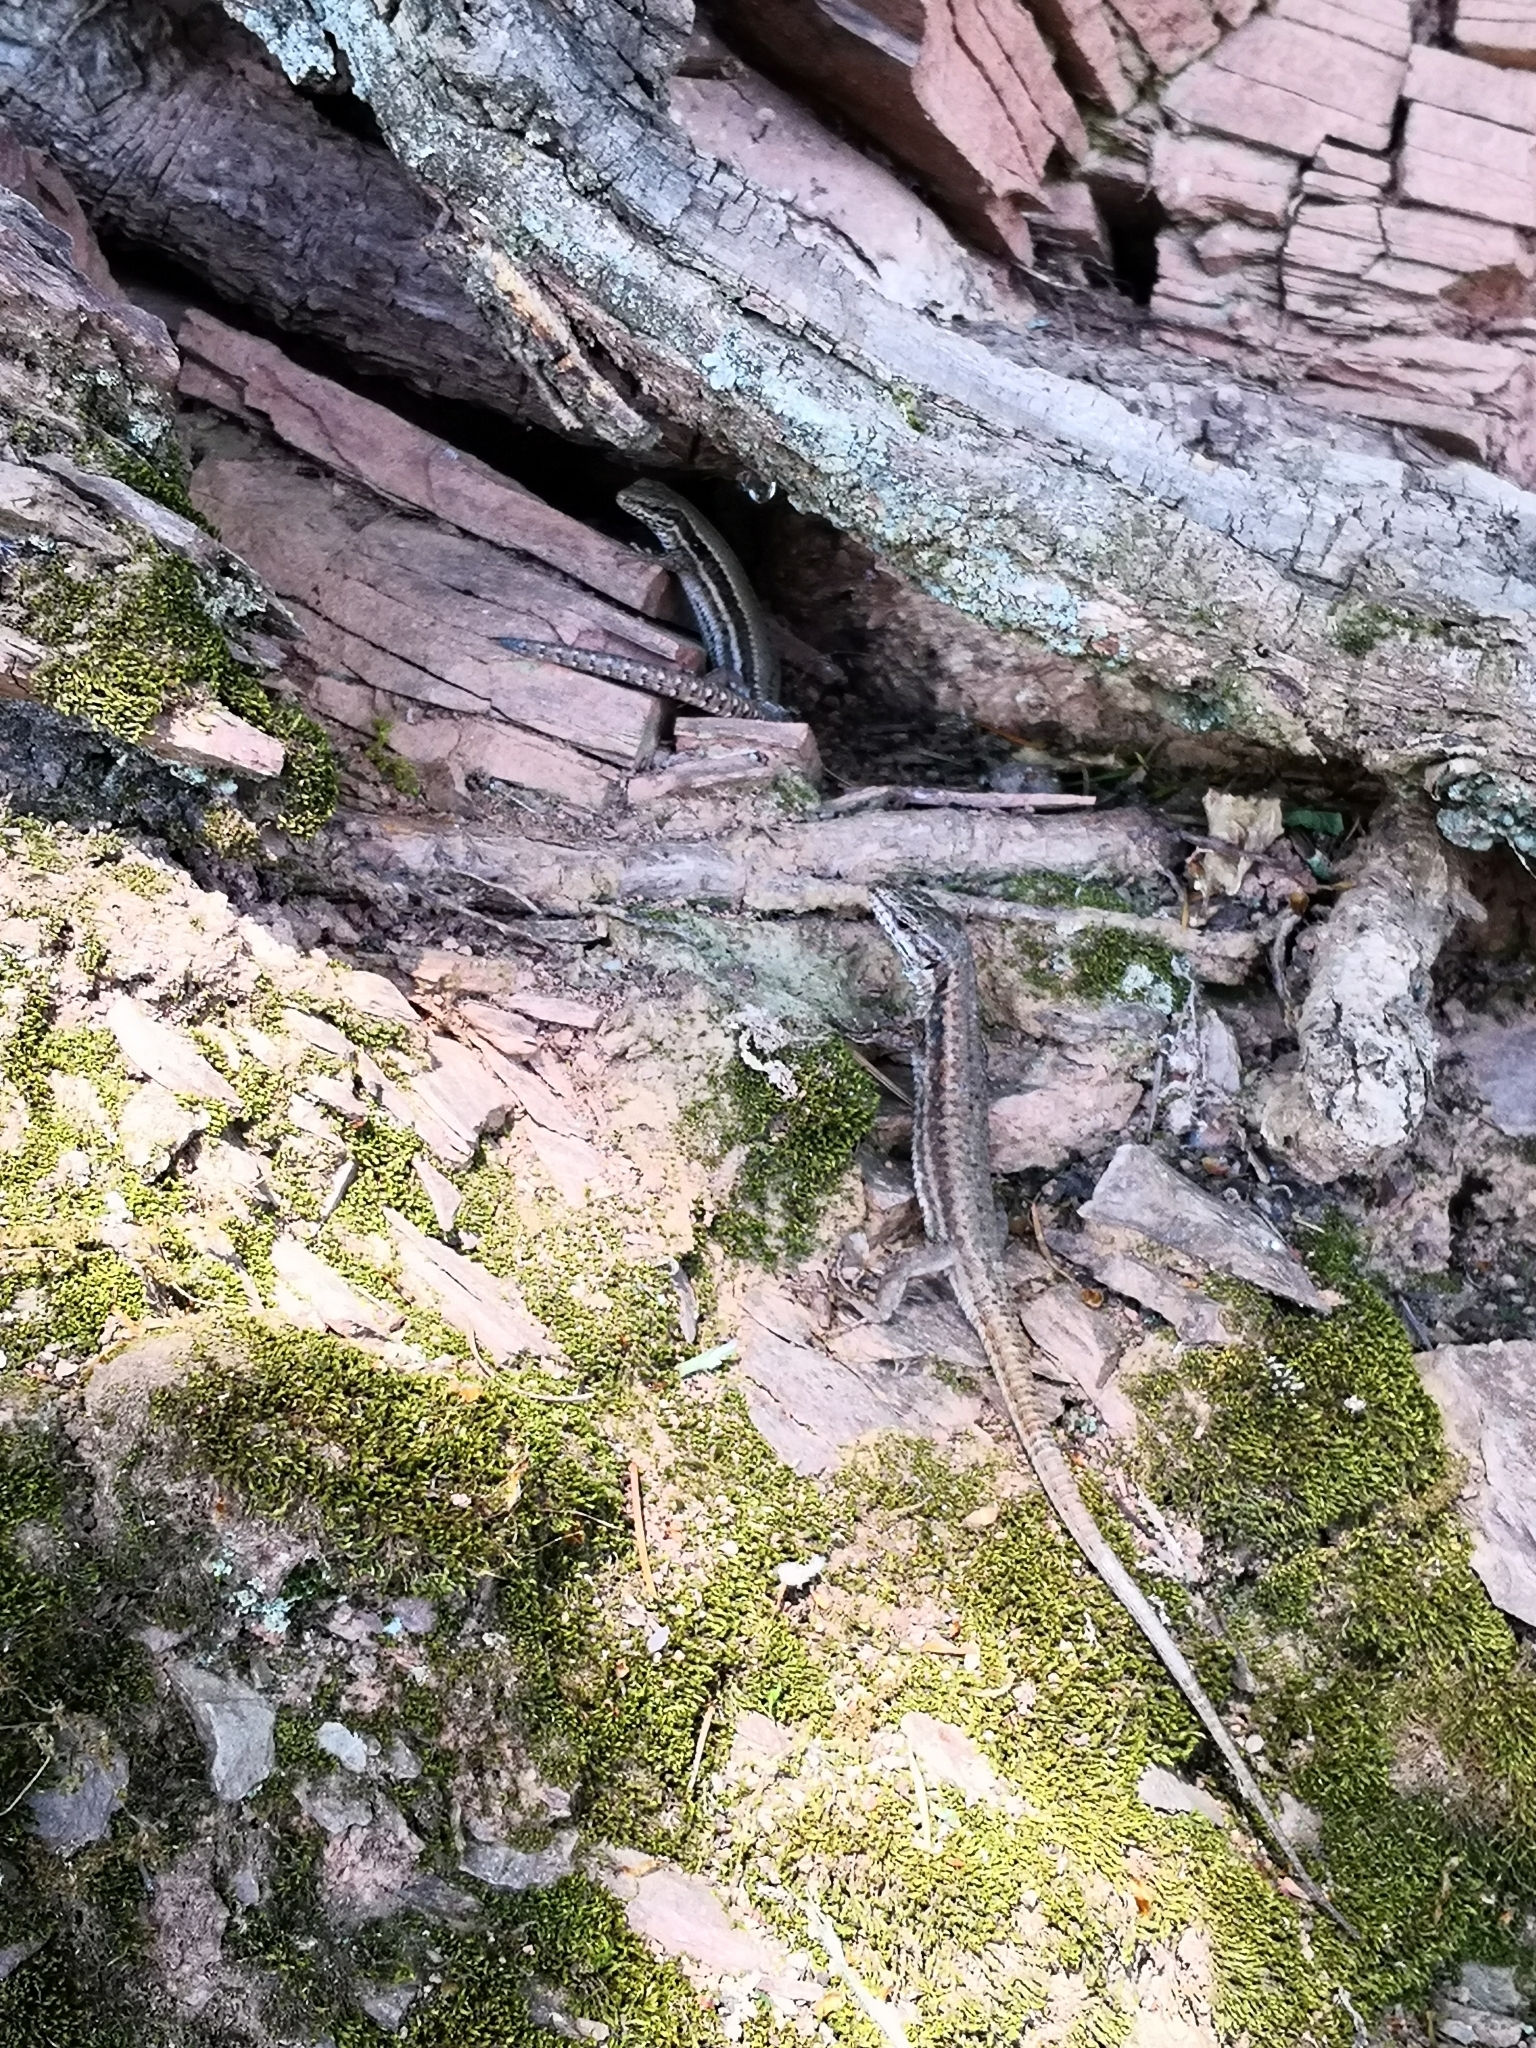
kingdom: Animalia
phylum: Chordata
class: Squamata
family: Lacertidae
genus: Podarcis
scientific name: Podarcis muralis
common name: Common wall lizard
